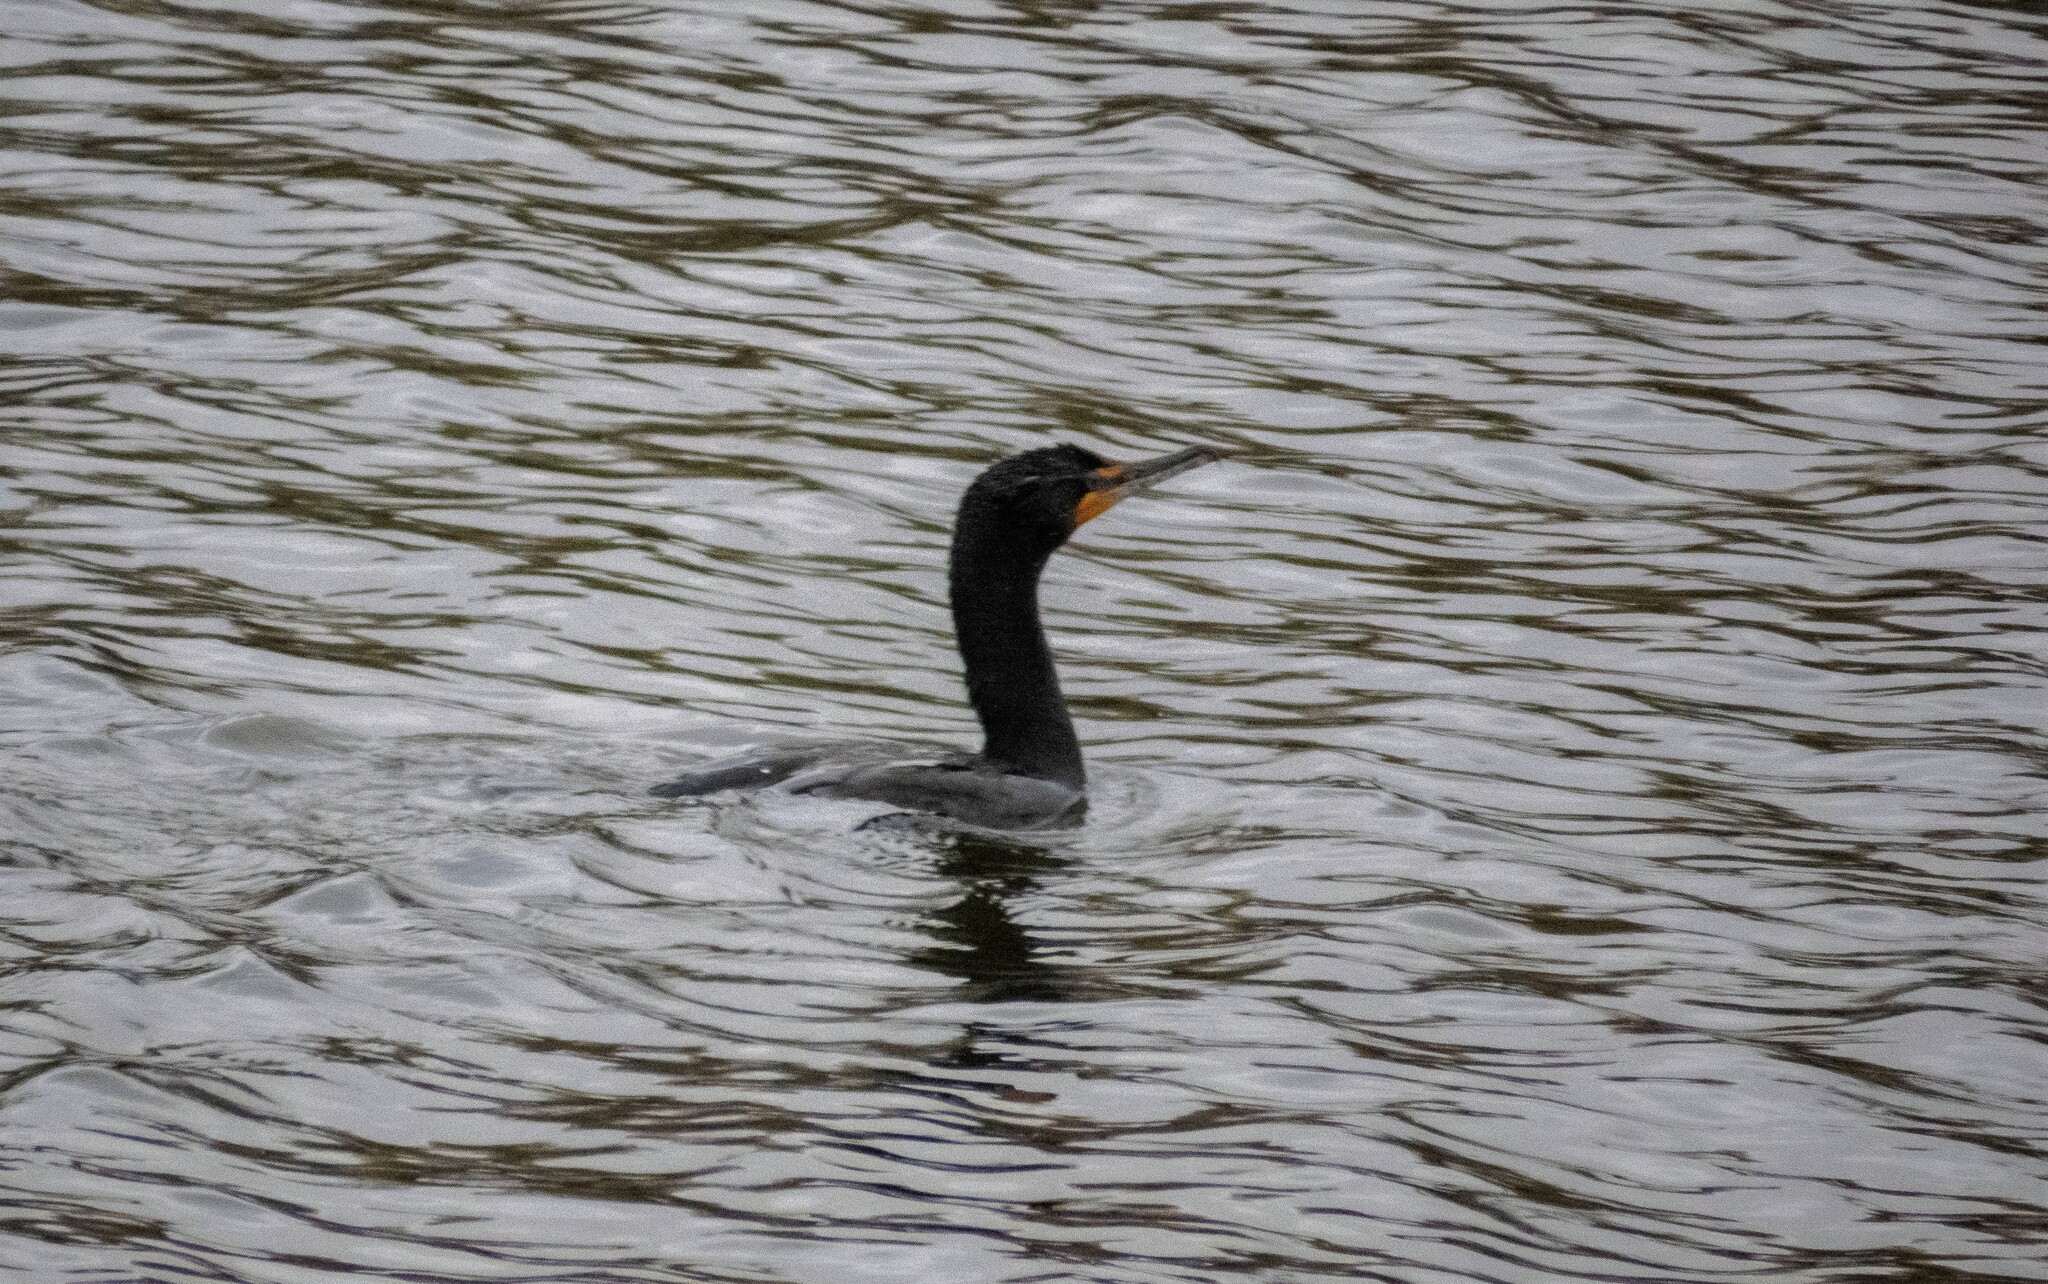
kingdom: Animalia
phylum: Chordata
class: Aves
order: Suliformes
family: Phalacrocoracidae
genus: Phalacrocorax
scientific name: Phalacrocorax auritus
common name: Double-crested cormorant
